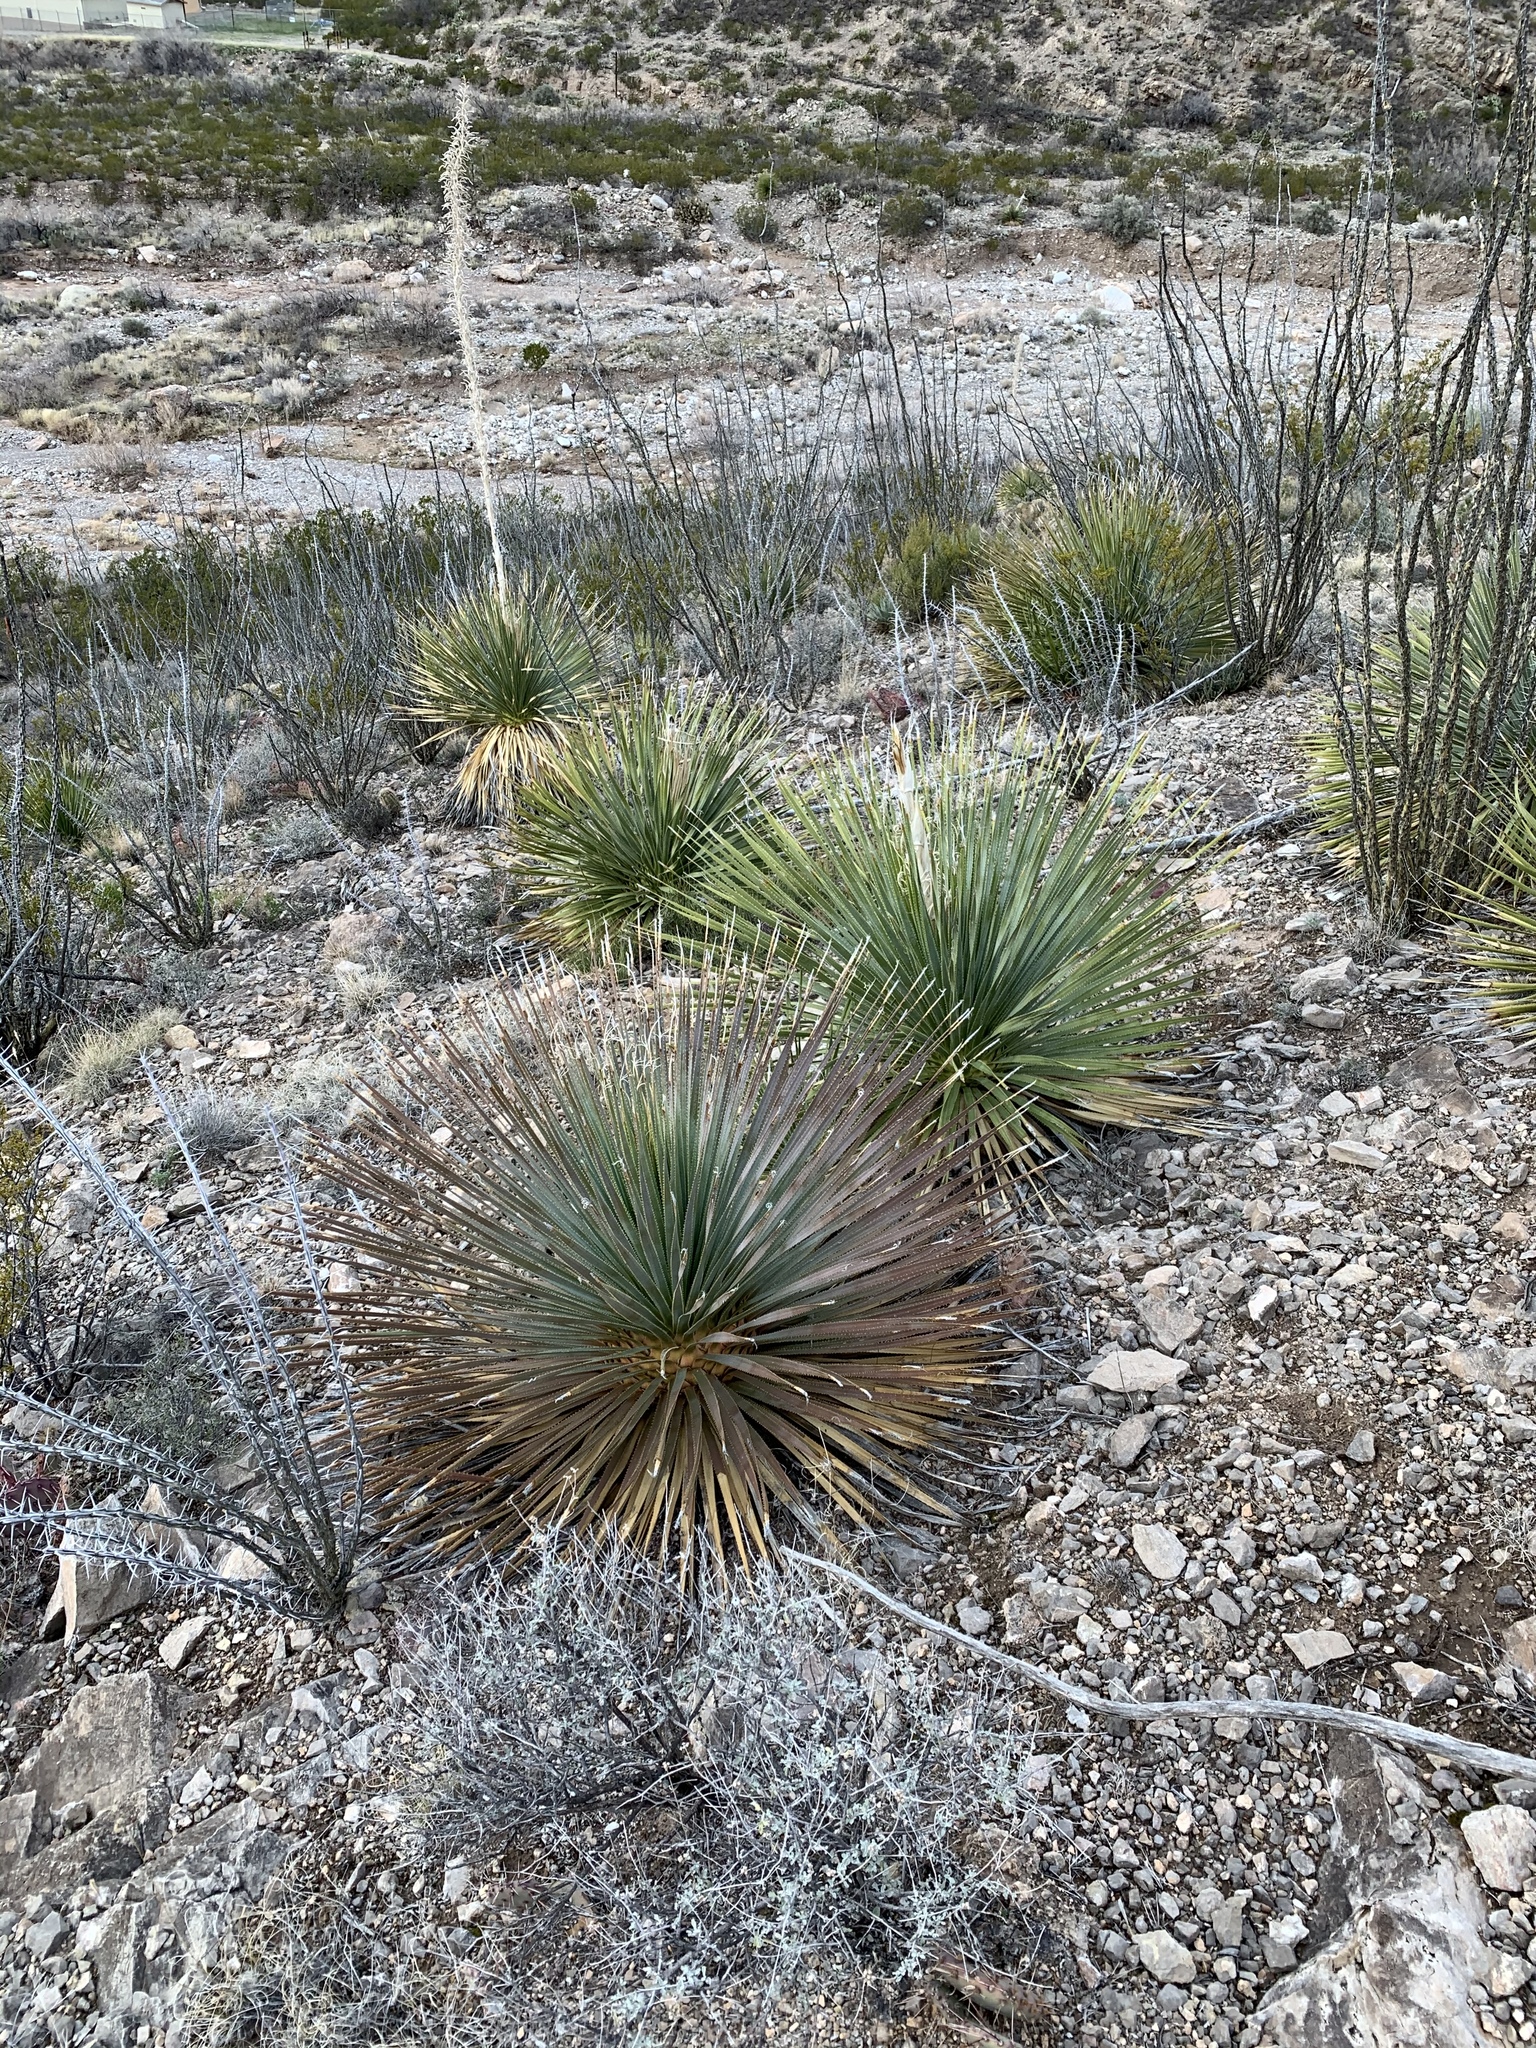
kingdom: Plantae
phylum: Tracheophyta
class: Liliopsida
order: Asparagales
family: Asparagaceae
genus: Dasylirion
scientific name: Dasylirion wheeleri
